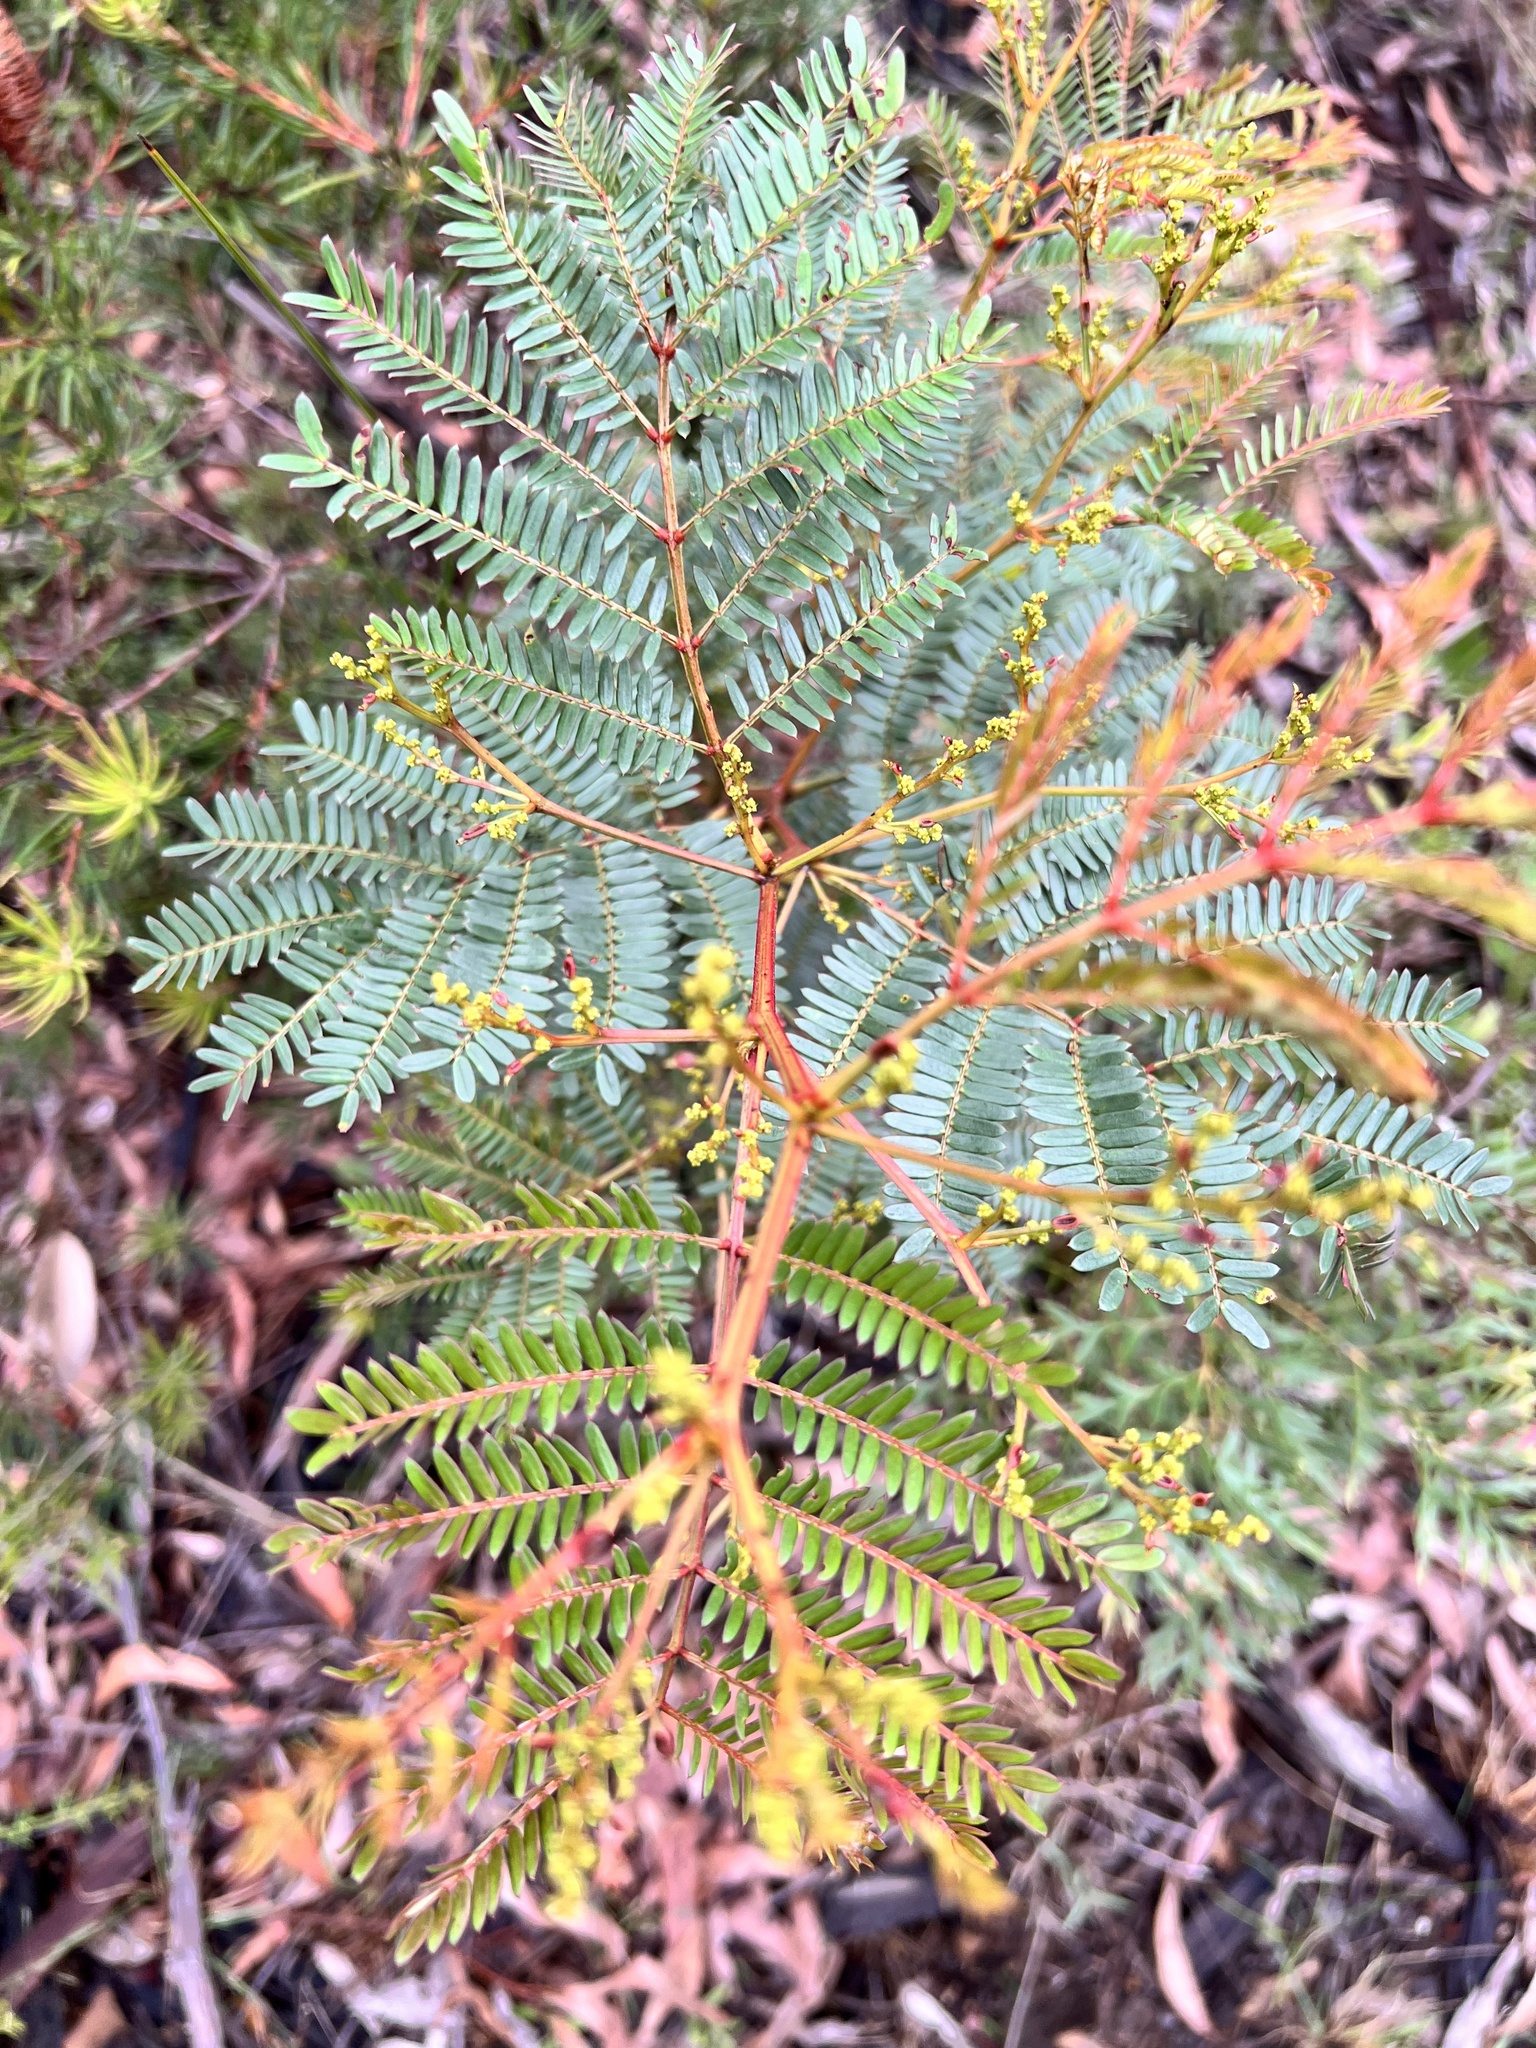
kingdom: Plantae
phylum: Tracheophyta
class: Magnoliopsida
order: Fabales
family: Fabaceae
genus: Acacia
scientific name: Acacia terminalis
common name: Cedar wattle
